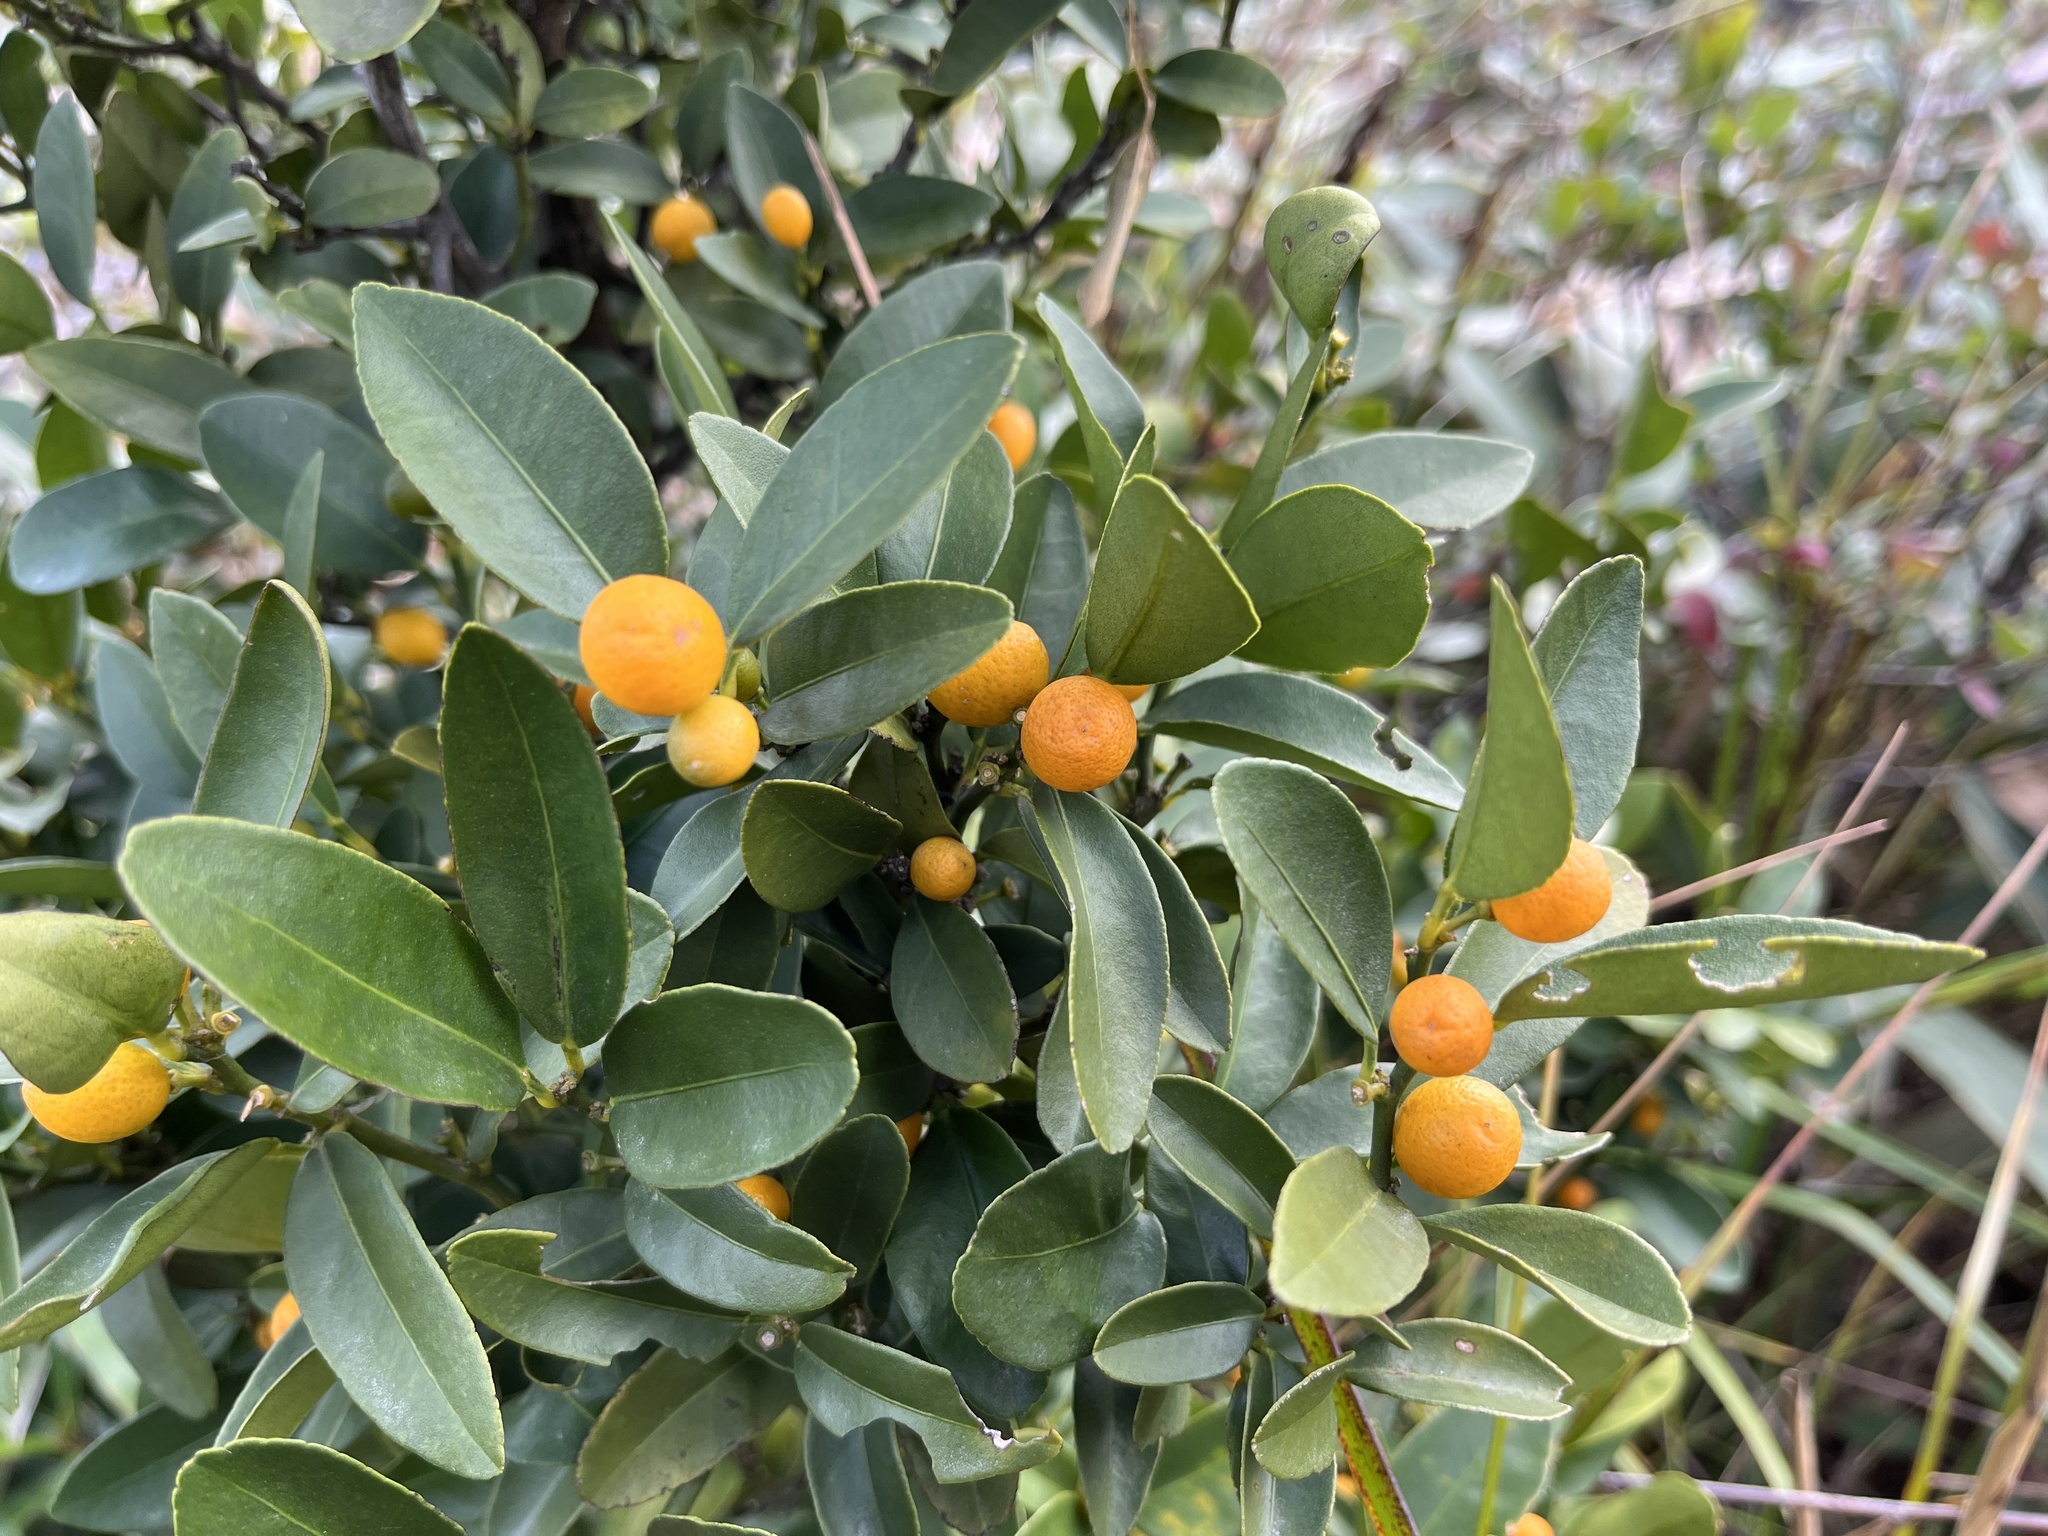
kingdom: Plantae
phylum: Tracheophyta
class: Magnoliopsida
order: Sapindales
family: Rutaceae
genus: Citrus
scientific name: Citrus japonica
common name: Kumquat
